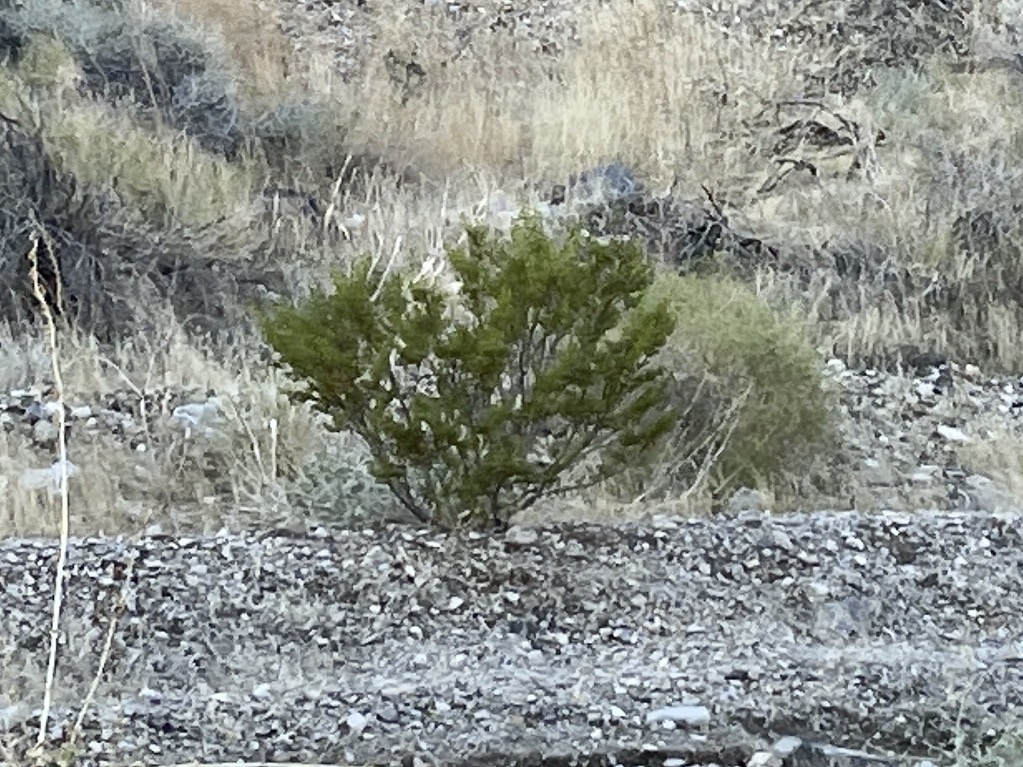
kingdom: Plantae
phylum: Tracheophyta
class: Magnoliopsida
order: Zygophyllales
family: Zygophyllaceae
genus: Larrea
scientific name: Larrea tridentata
